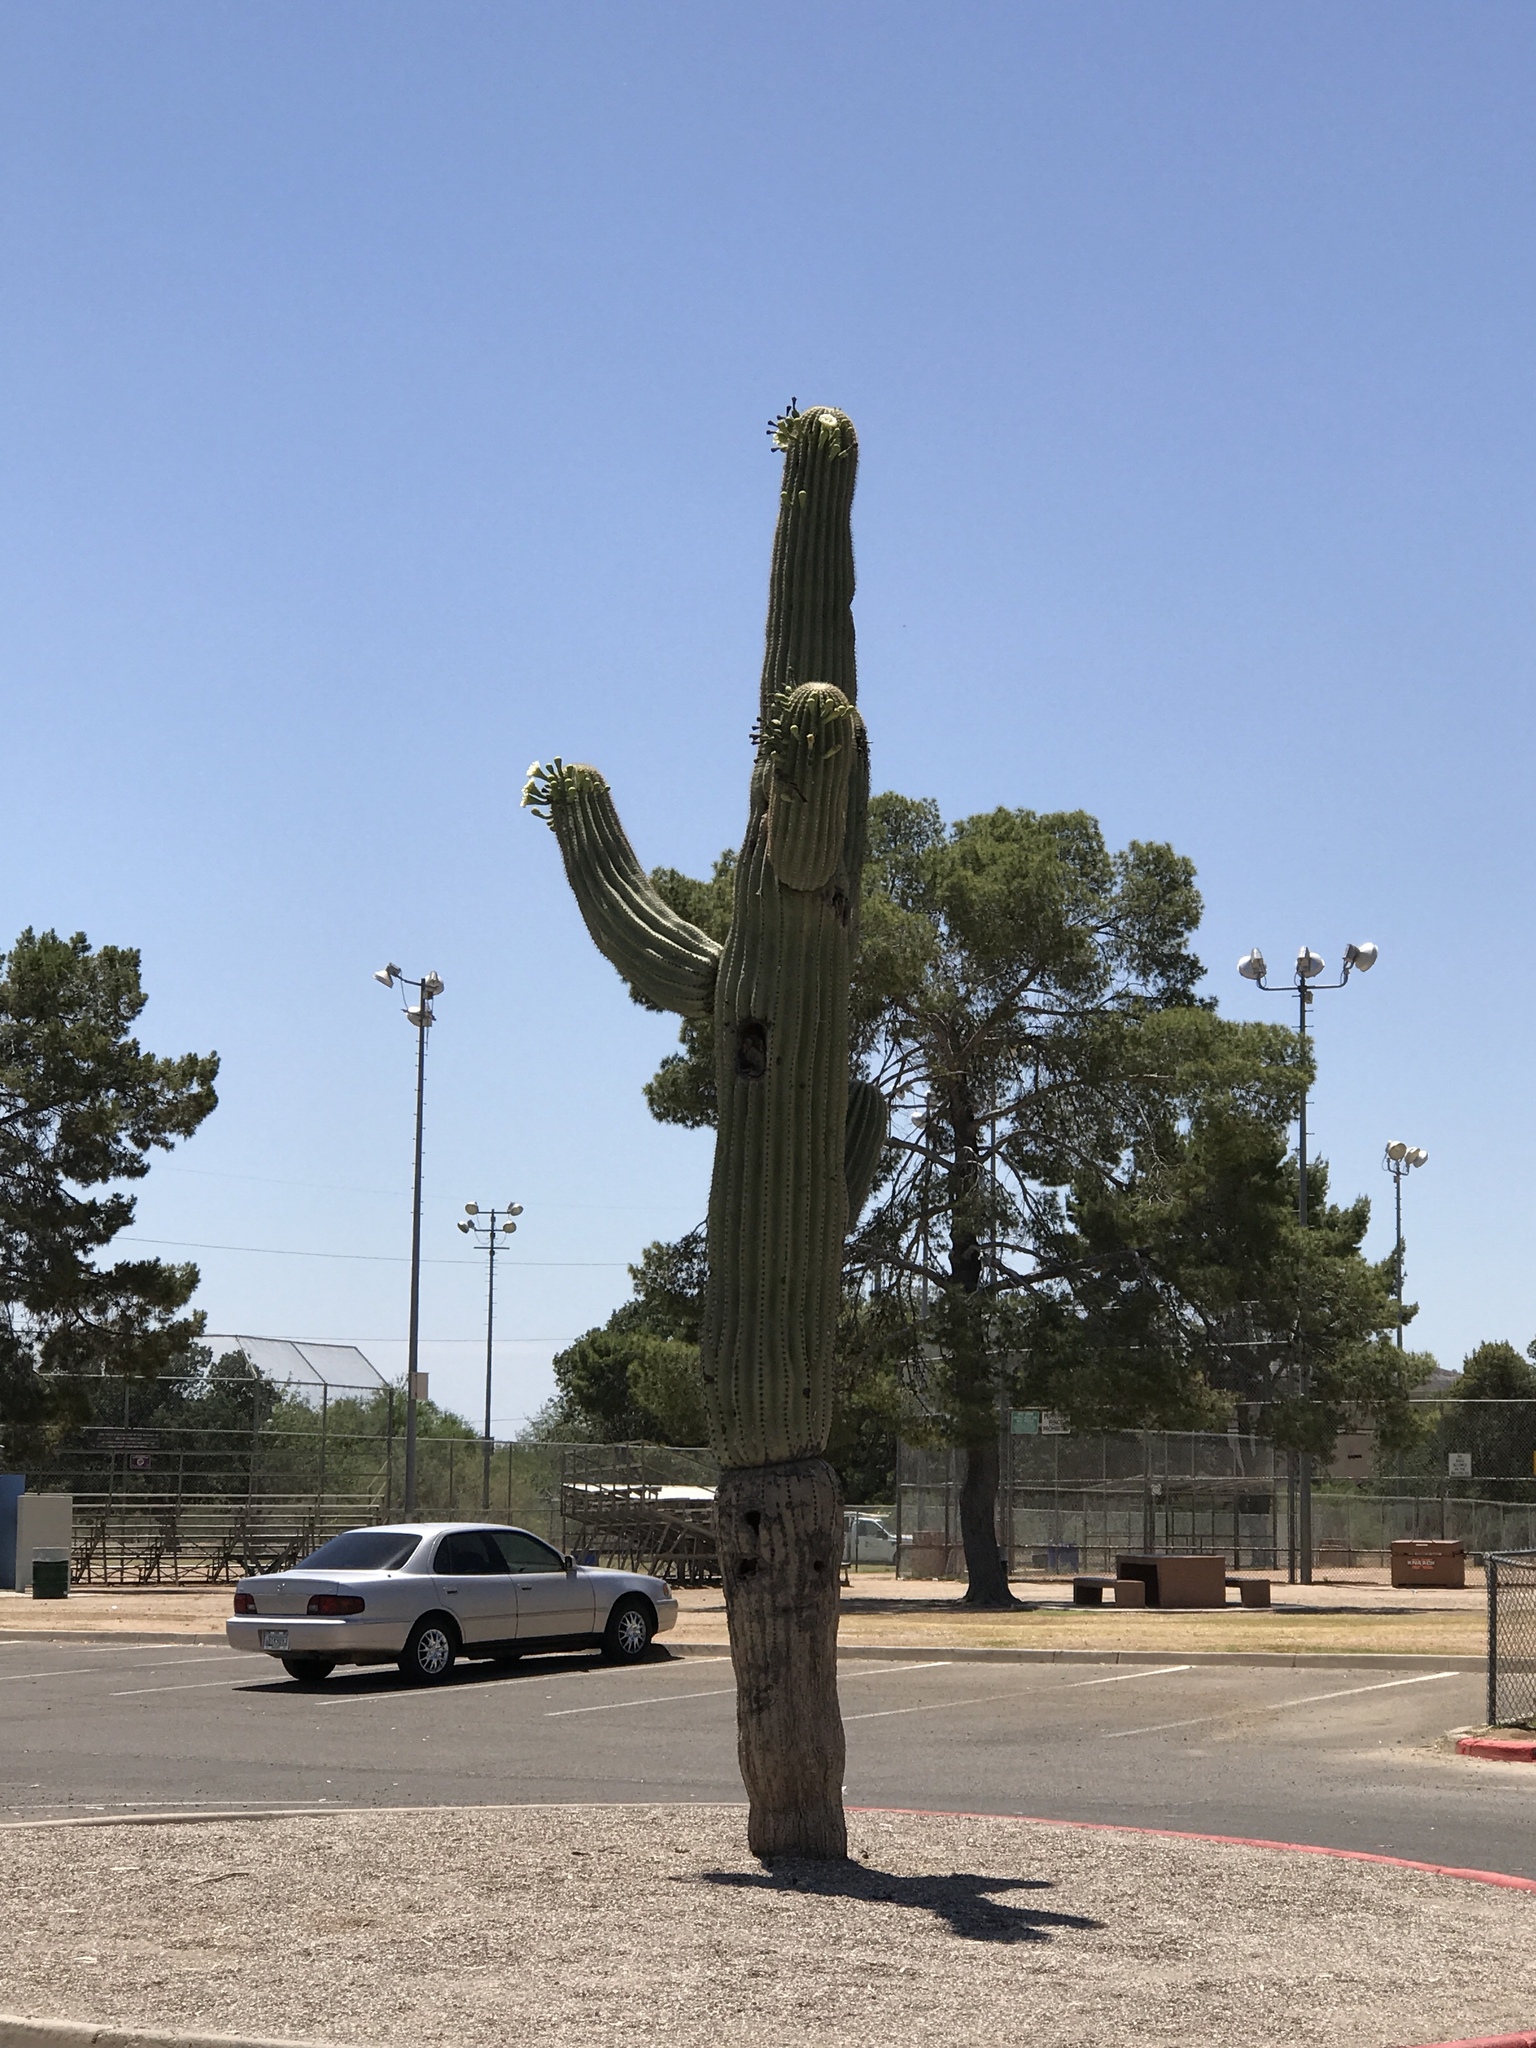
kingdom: Plantae
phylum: Tracheophyta
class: Magnoliopsida
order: Caryophyllales
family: Cactaceae
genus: Carnegiea
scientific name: Carnegiea gigantea
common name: Saguaro
